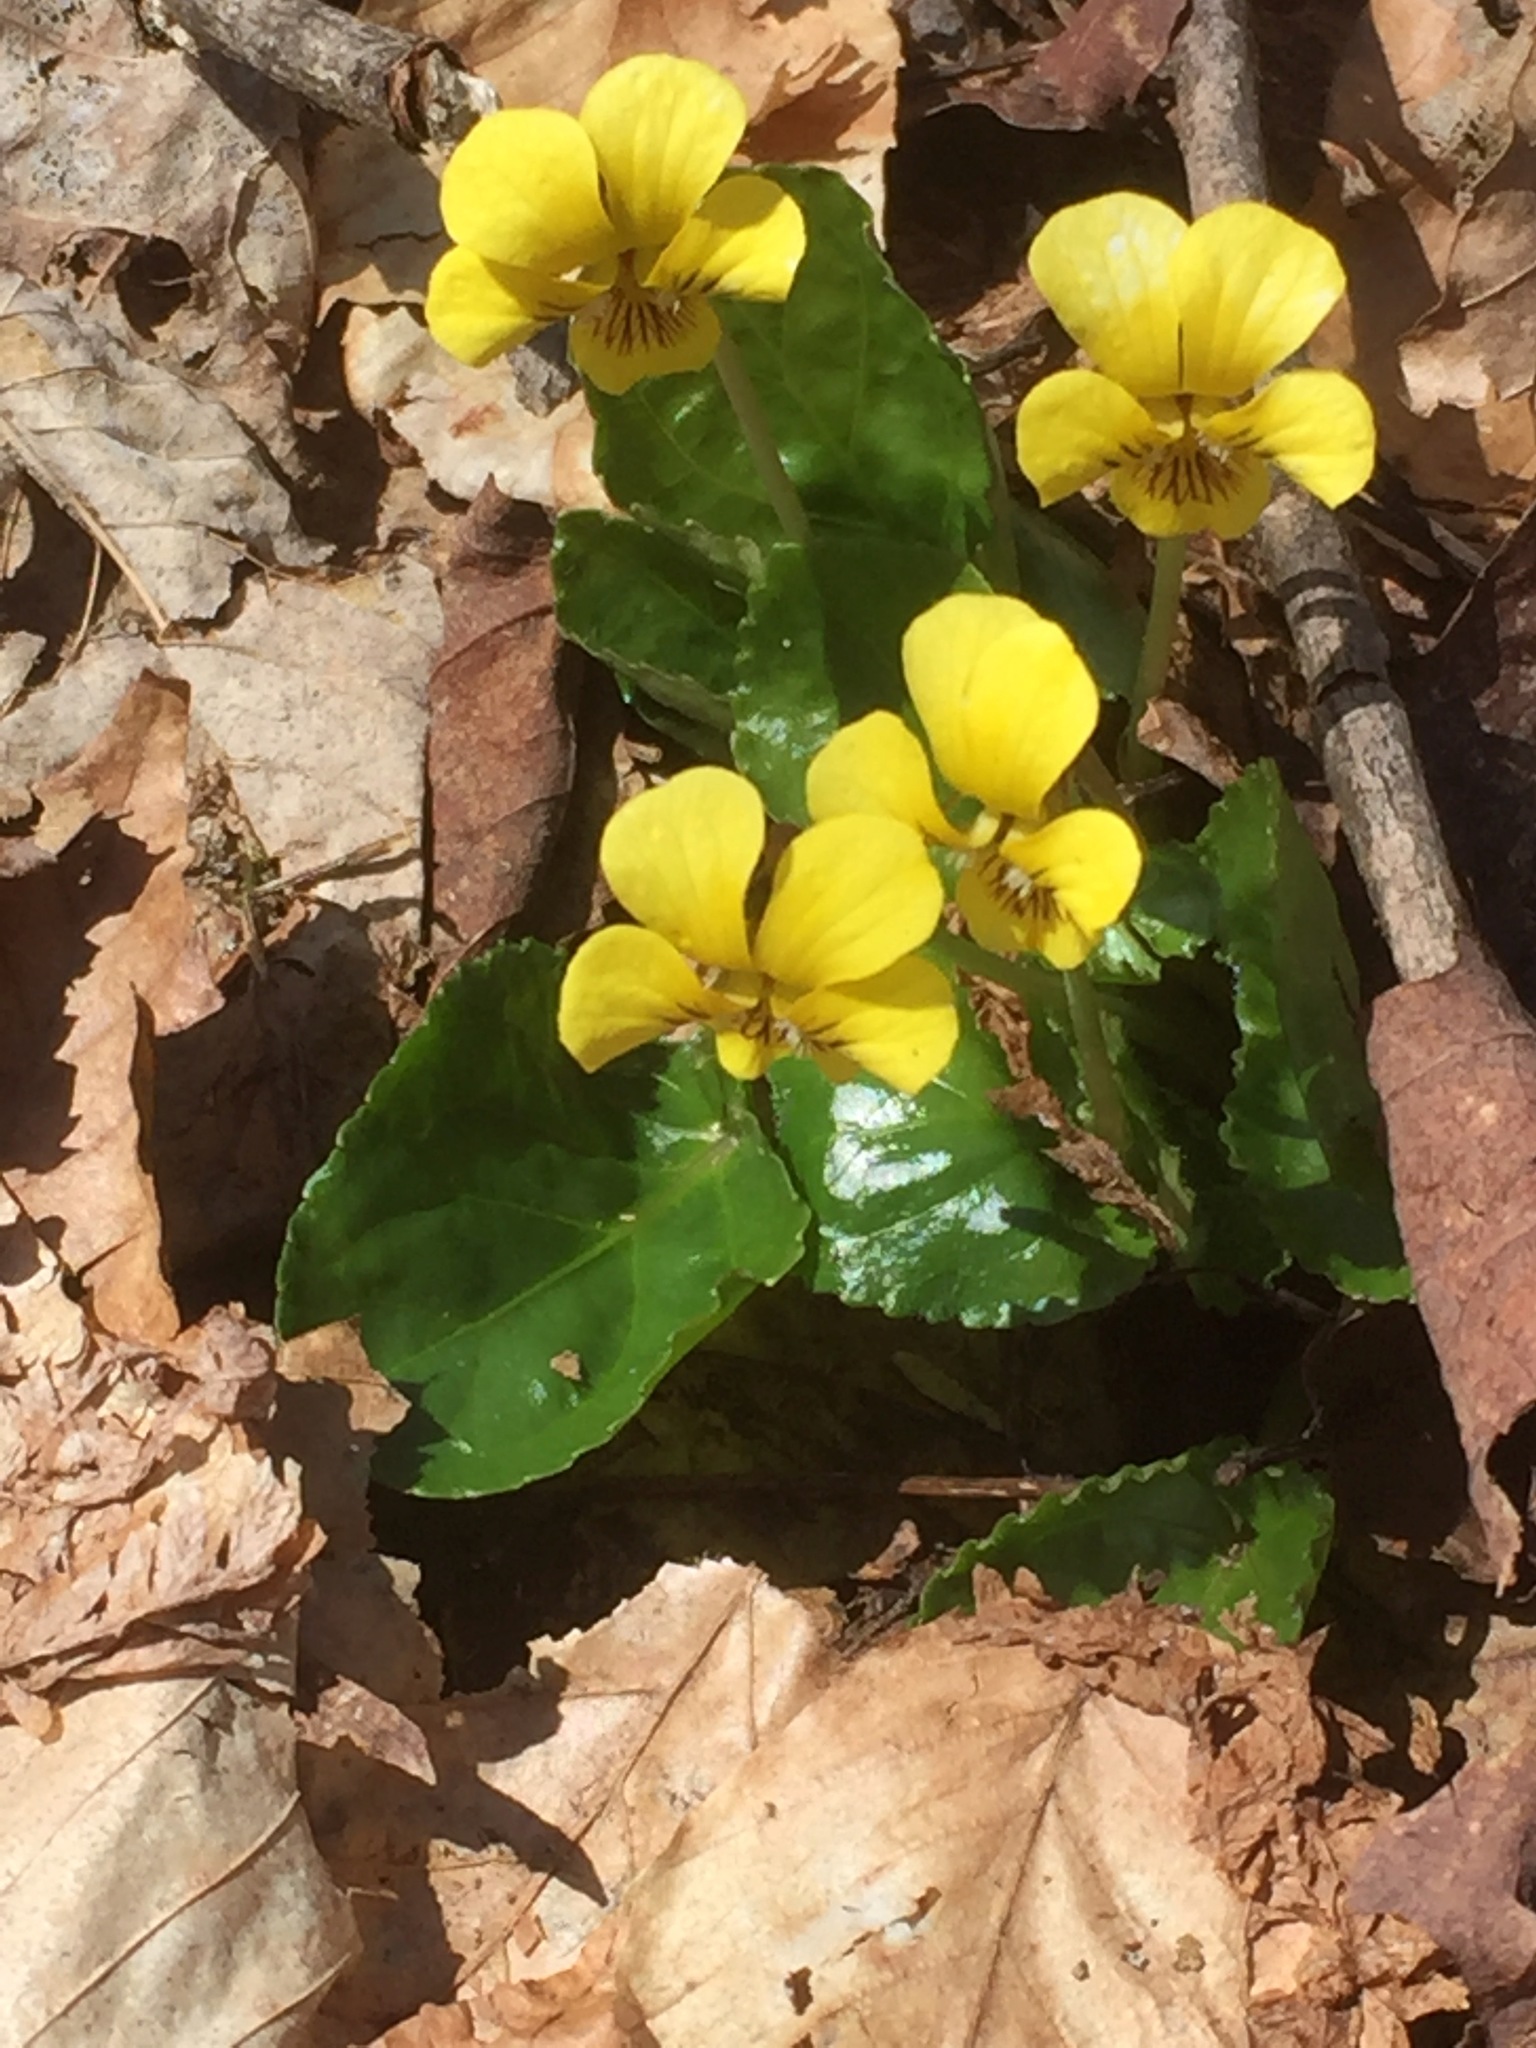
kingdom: Plantae
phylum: Tracheophyta
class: Magnoliopsida
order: Malpighiales
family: Violaceae
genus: Viola
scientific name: Viola rotundifolia
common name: Early yellow violet
